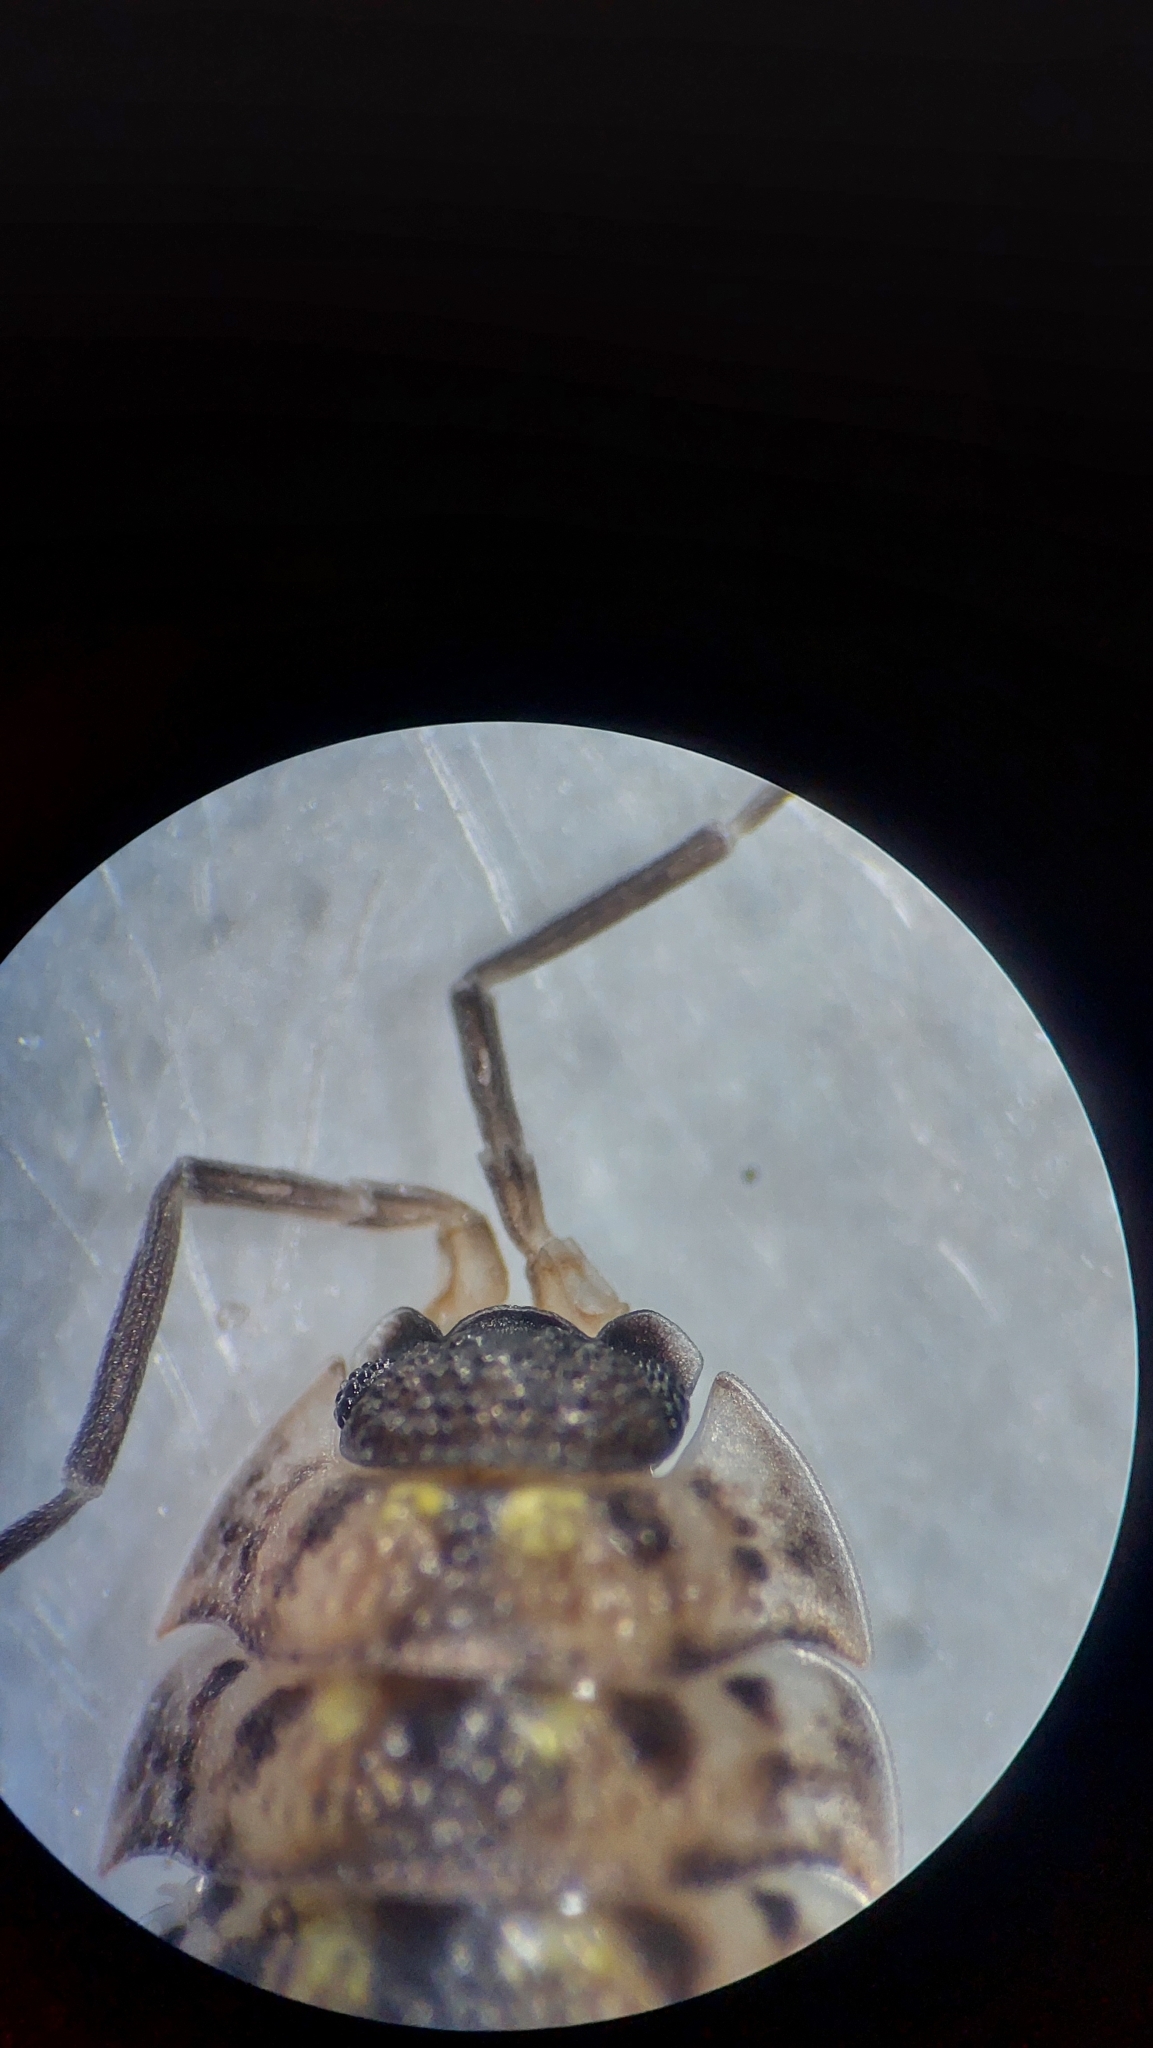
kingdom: Animalia
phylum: Arthropoda
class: Malacostraca
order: Isopoda
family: Porcellionidae
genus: Porcellio
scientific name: Porcellio spinicornis
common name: Painted woodlouse
